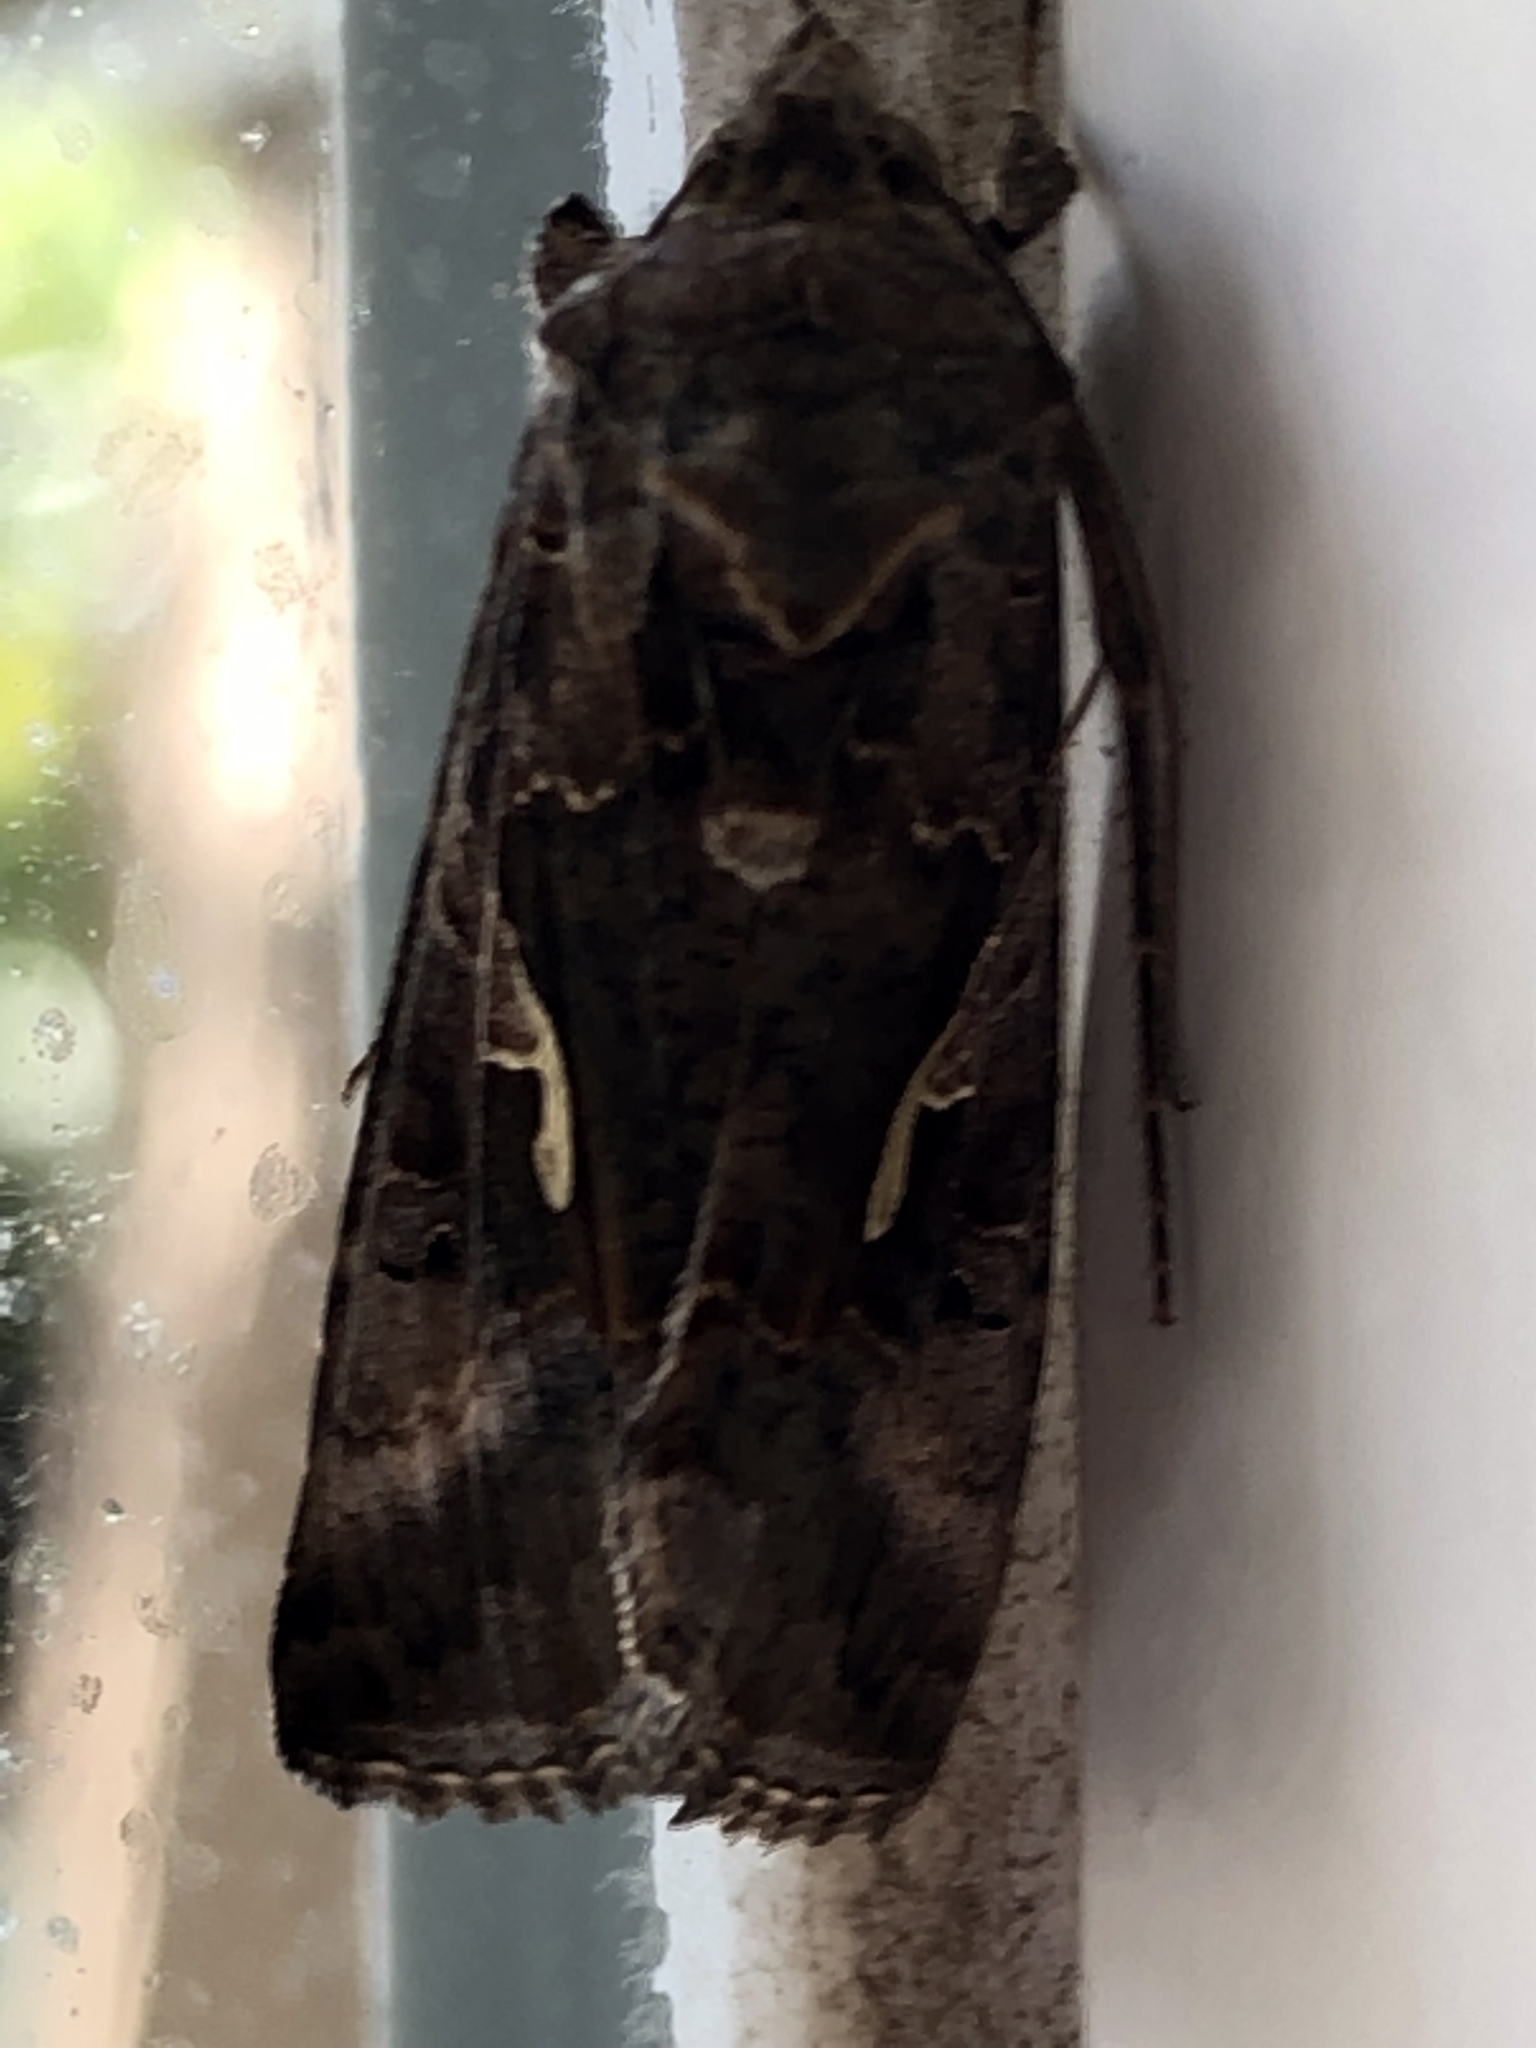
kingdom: Animalia
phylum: Arthropoda
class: Insecta
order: Lepidoptera
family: Noctuidae
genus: Autographa
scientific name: Autographa gamma
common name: Silver y
